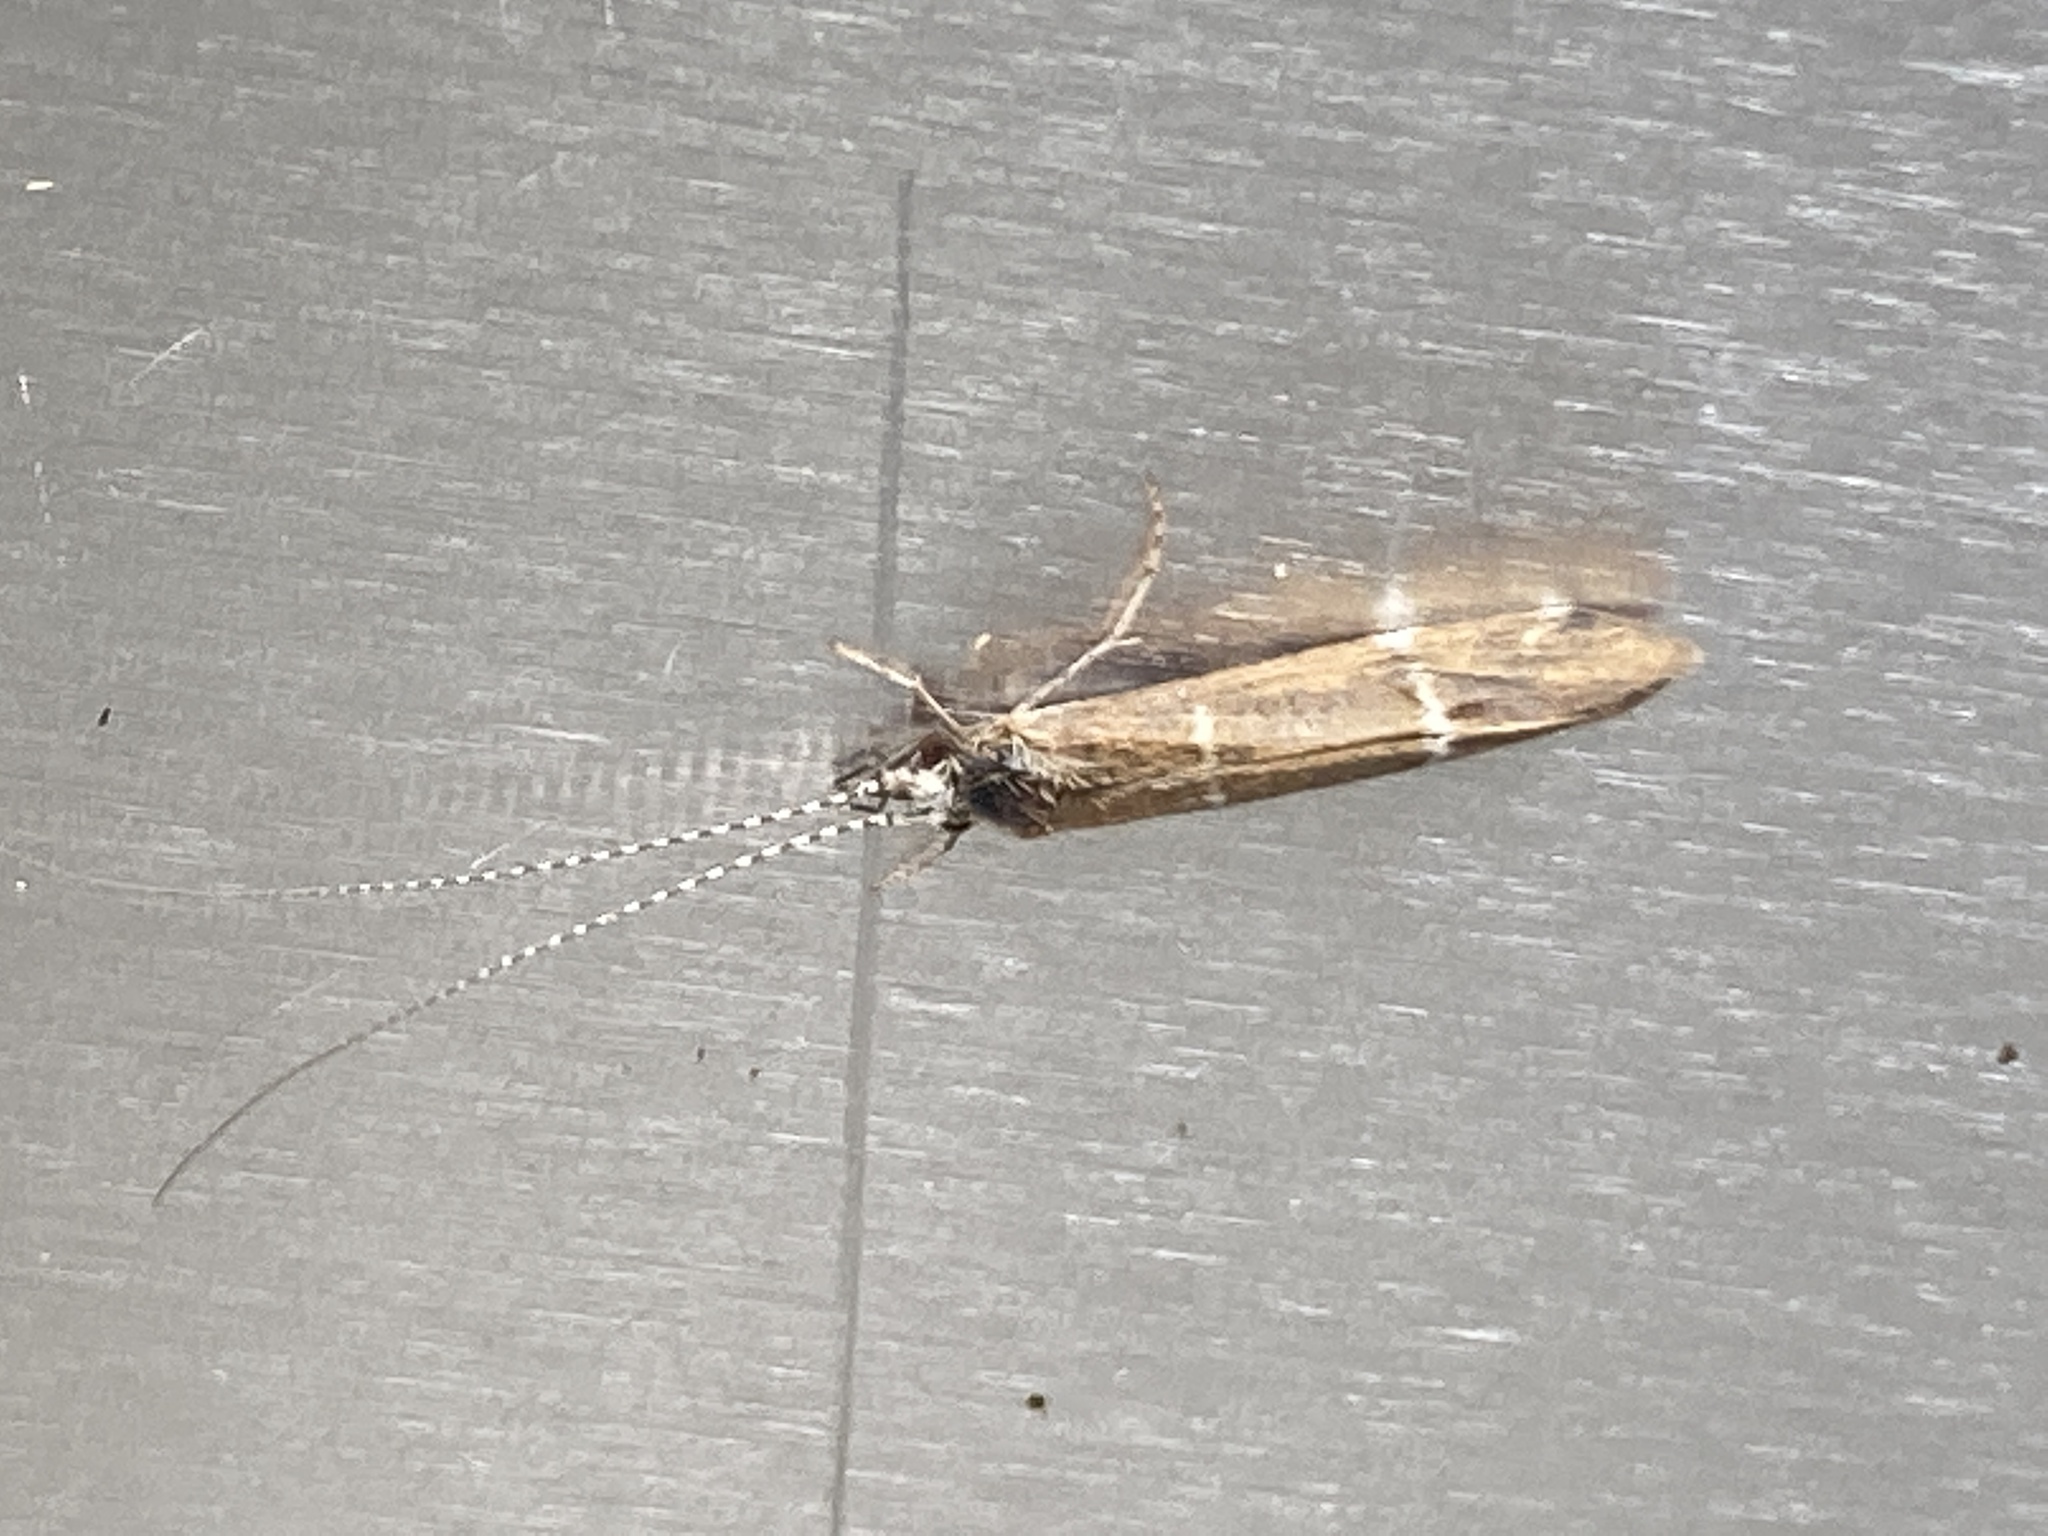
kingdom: Animalia
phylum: Arthropoda
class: Insecta
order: Trichoptera
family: Leptoceridae
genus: Athripsodes
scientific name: Athripsodes albifrons
